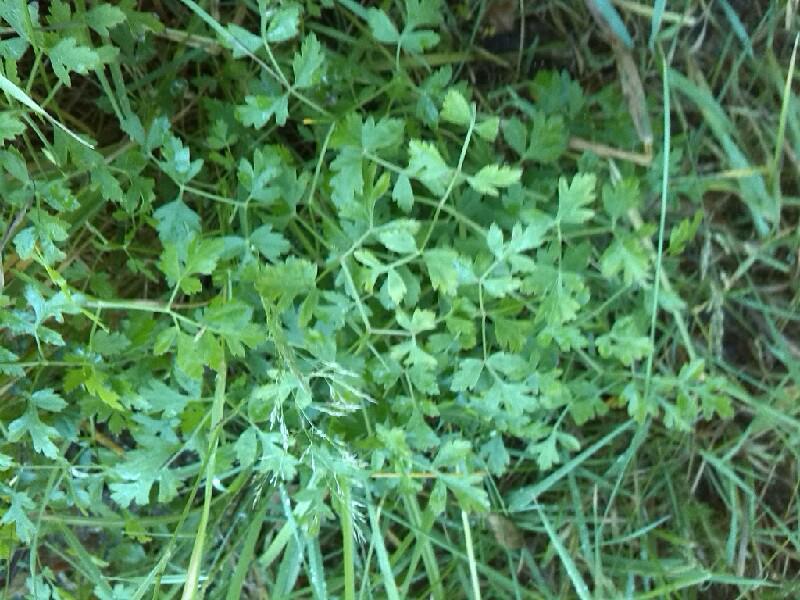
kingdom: Plantae
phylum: Tracheophyta
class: Magnoliopsida
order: Apiales
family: Apiaceae
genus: Oreoselinum
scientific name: Oreoselinum nigrum
